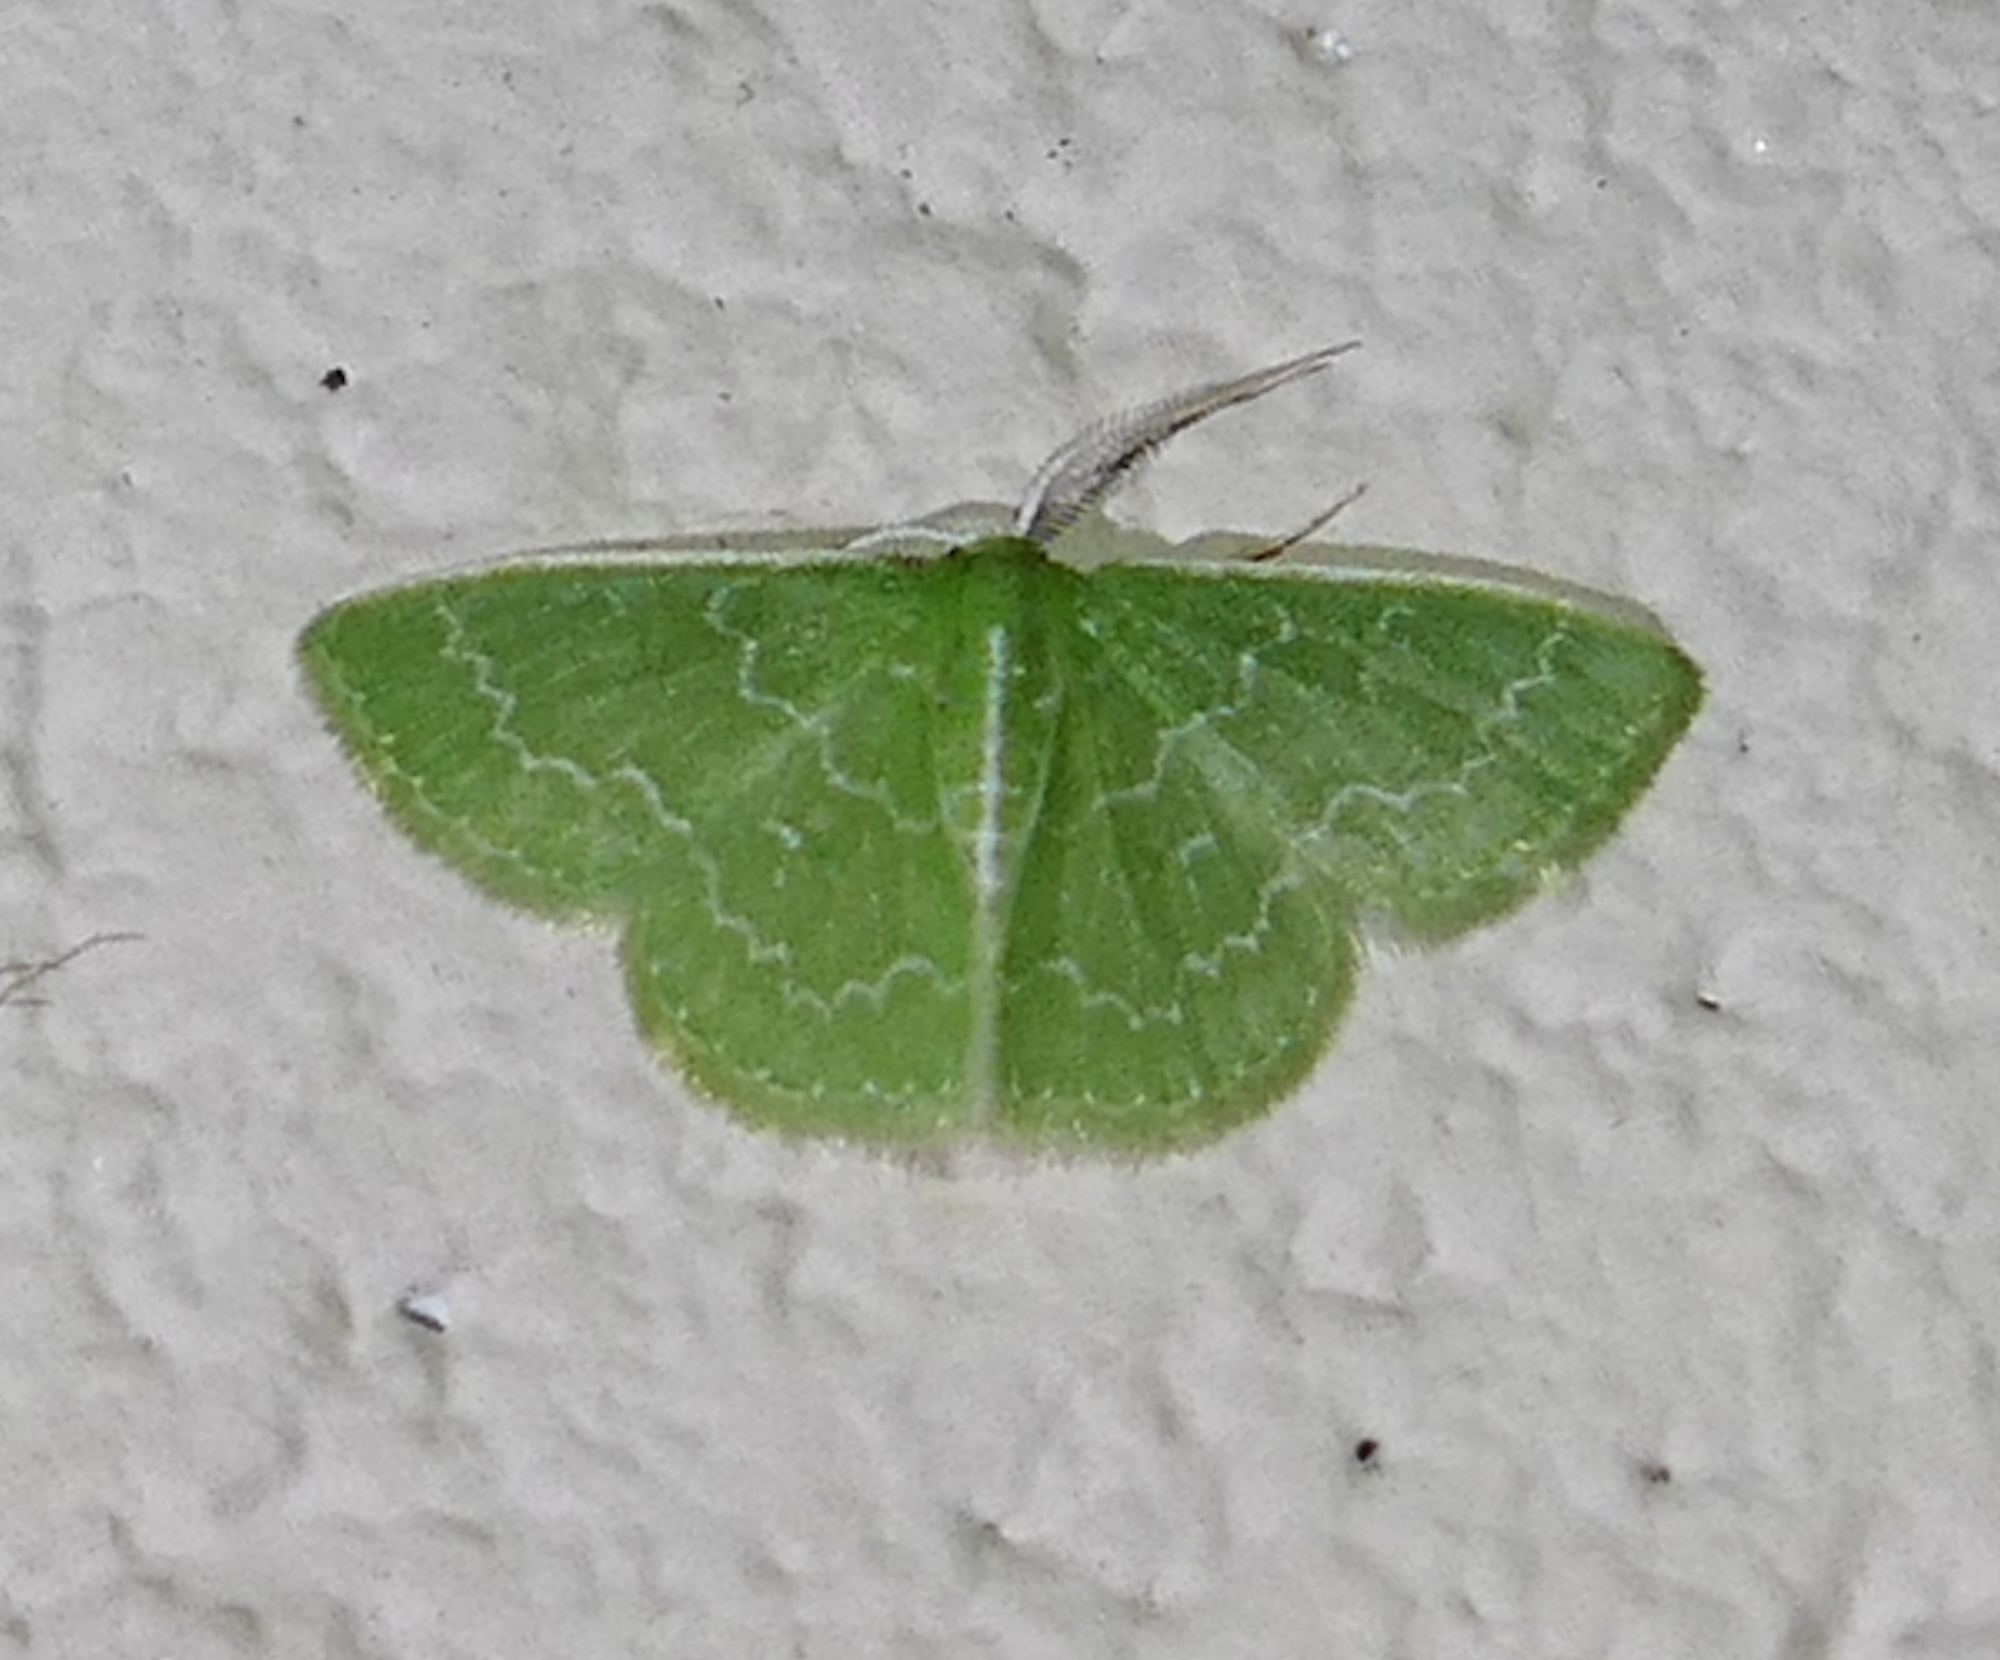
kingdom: Animalia
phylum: Arthropoda
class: Insecta
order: Lepidoptera
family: Geometridae
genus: Synchlora
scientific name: Synchlora frondaria
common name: Southern emerald
